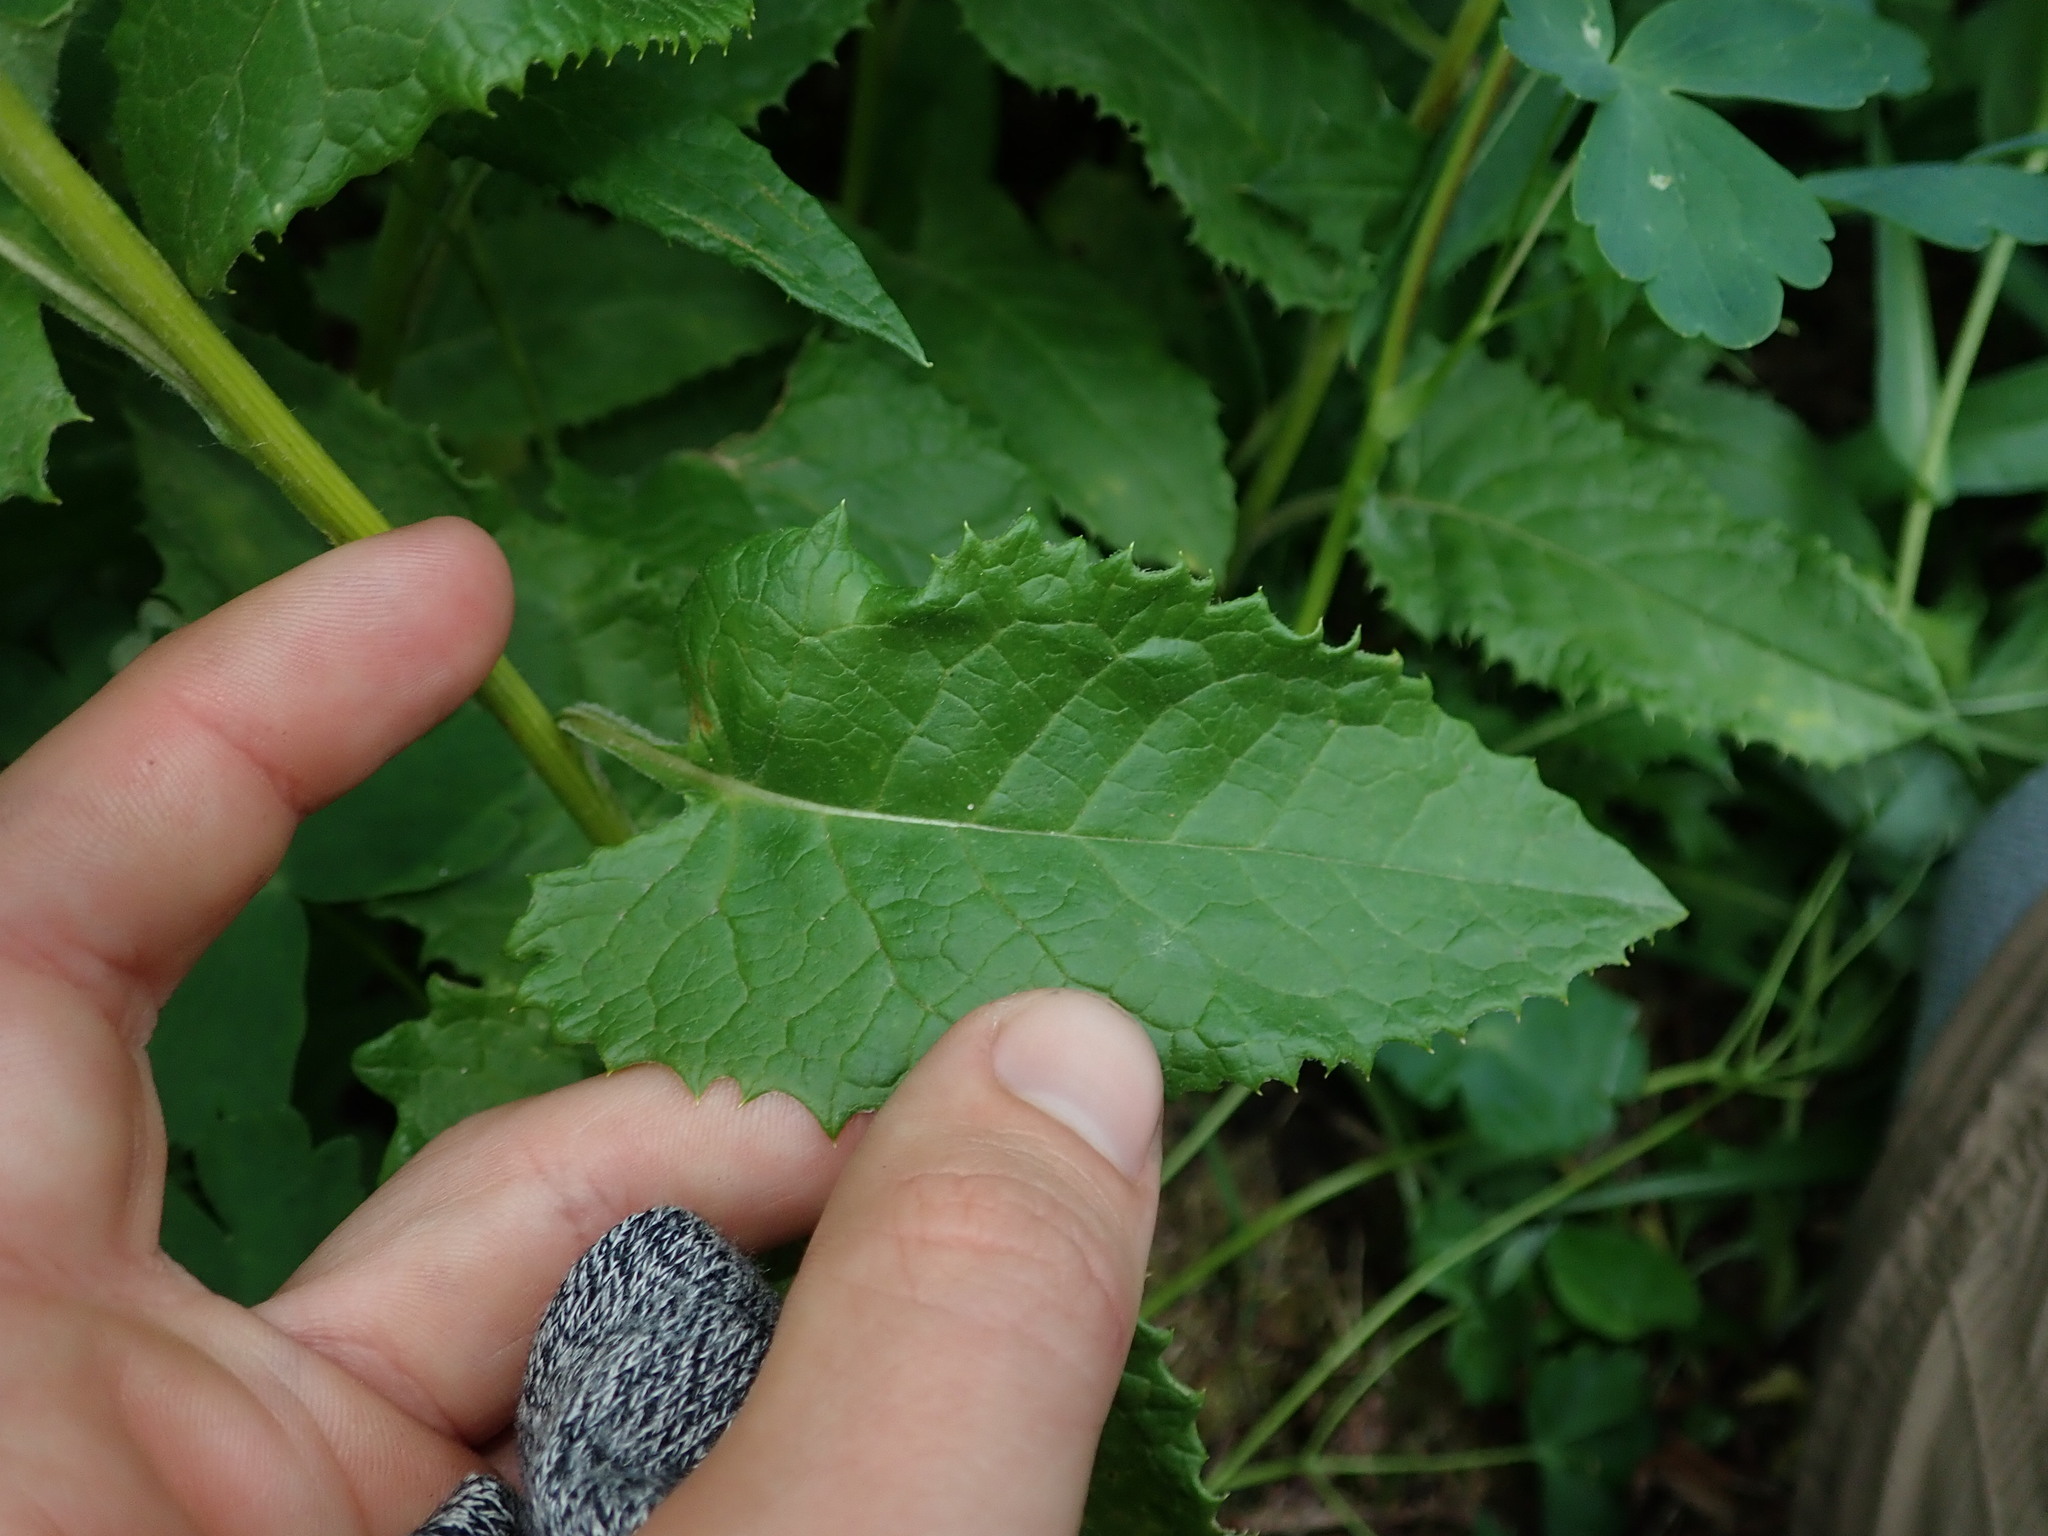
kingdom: Plantae
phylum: Tracheophyta
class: Magnoliopsida
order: Asterales
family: Asteraceae
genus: Saussurea
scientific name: Saussurea americana
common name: American saw-wort
